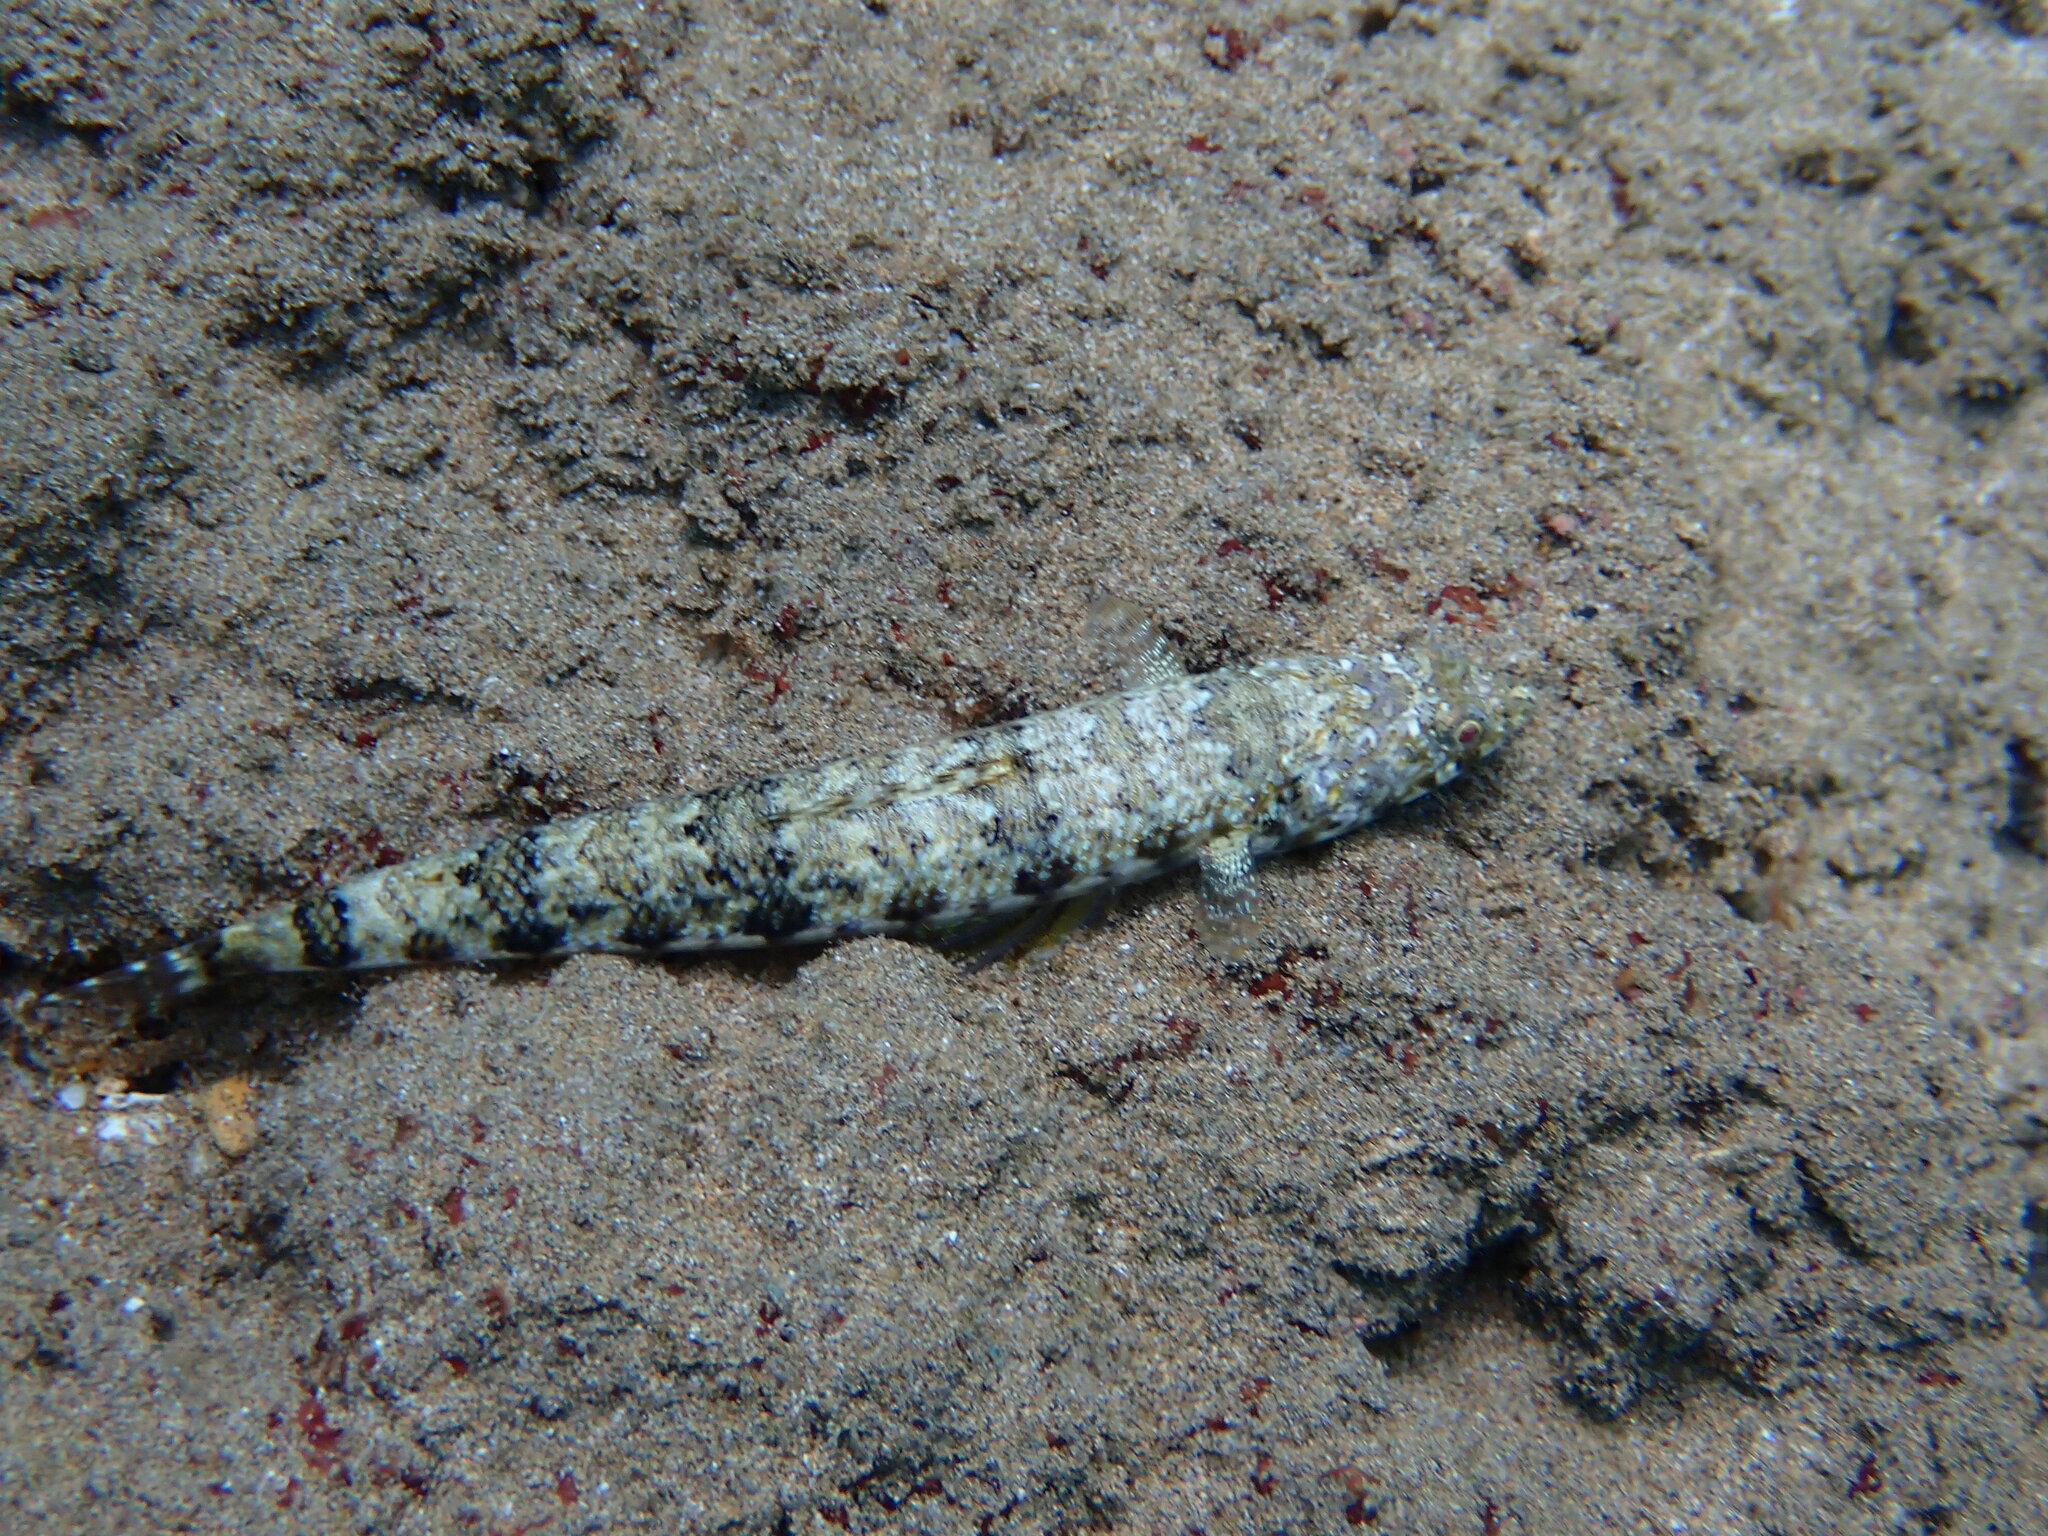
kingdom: Animalia
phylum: Chordata
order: Aulopiformes
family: Synodontidae
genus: Synodus
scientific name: Synodus dermatogenys
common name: Banded lizardfish
